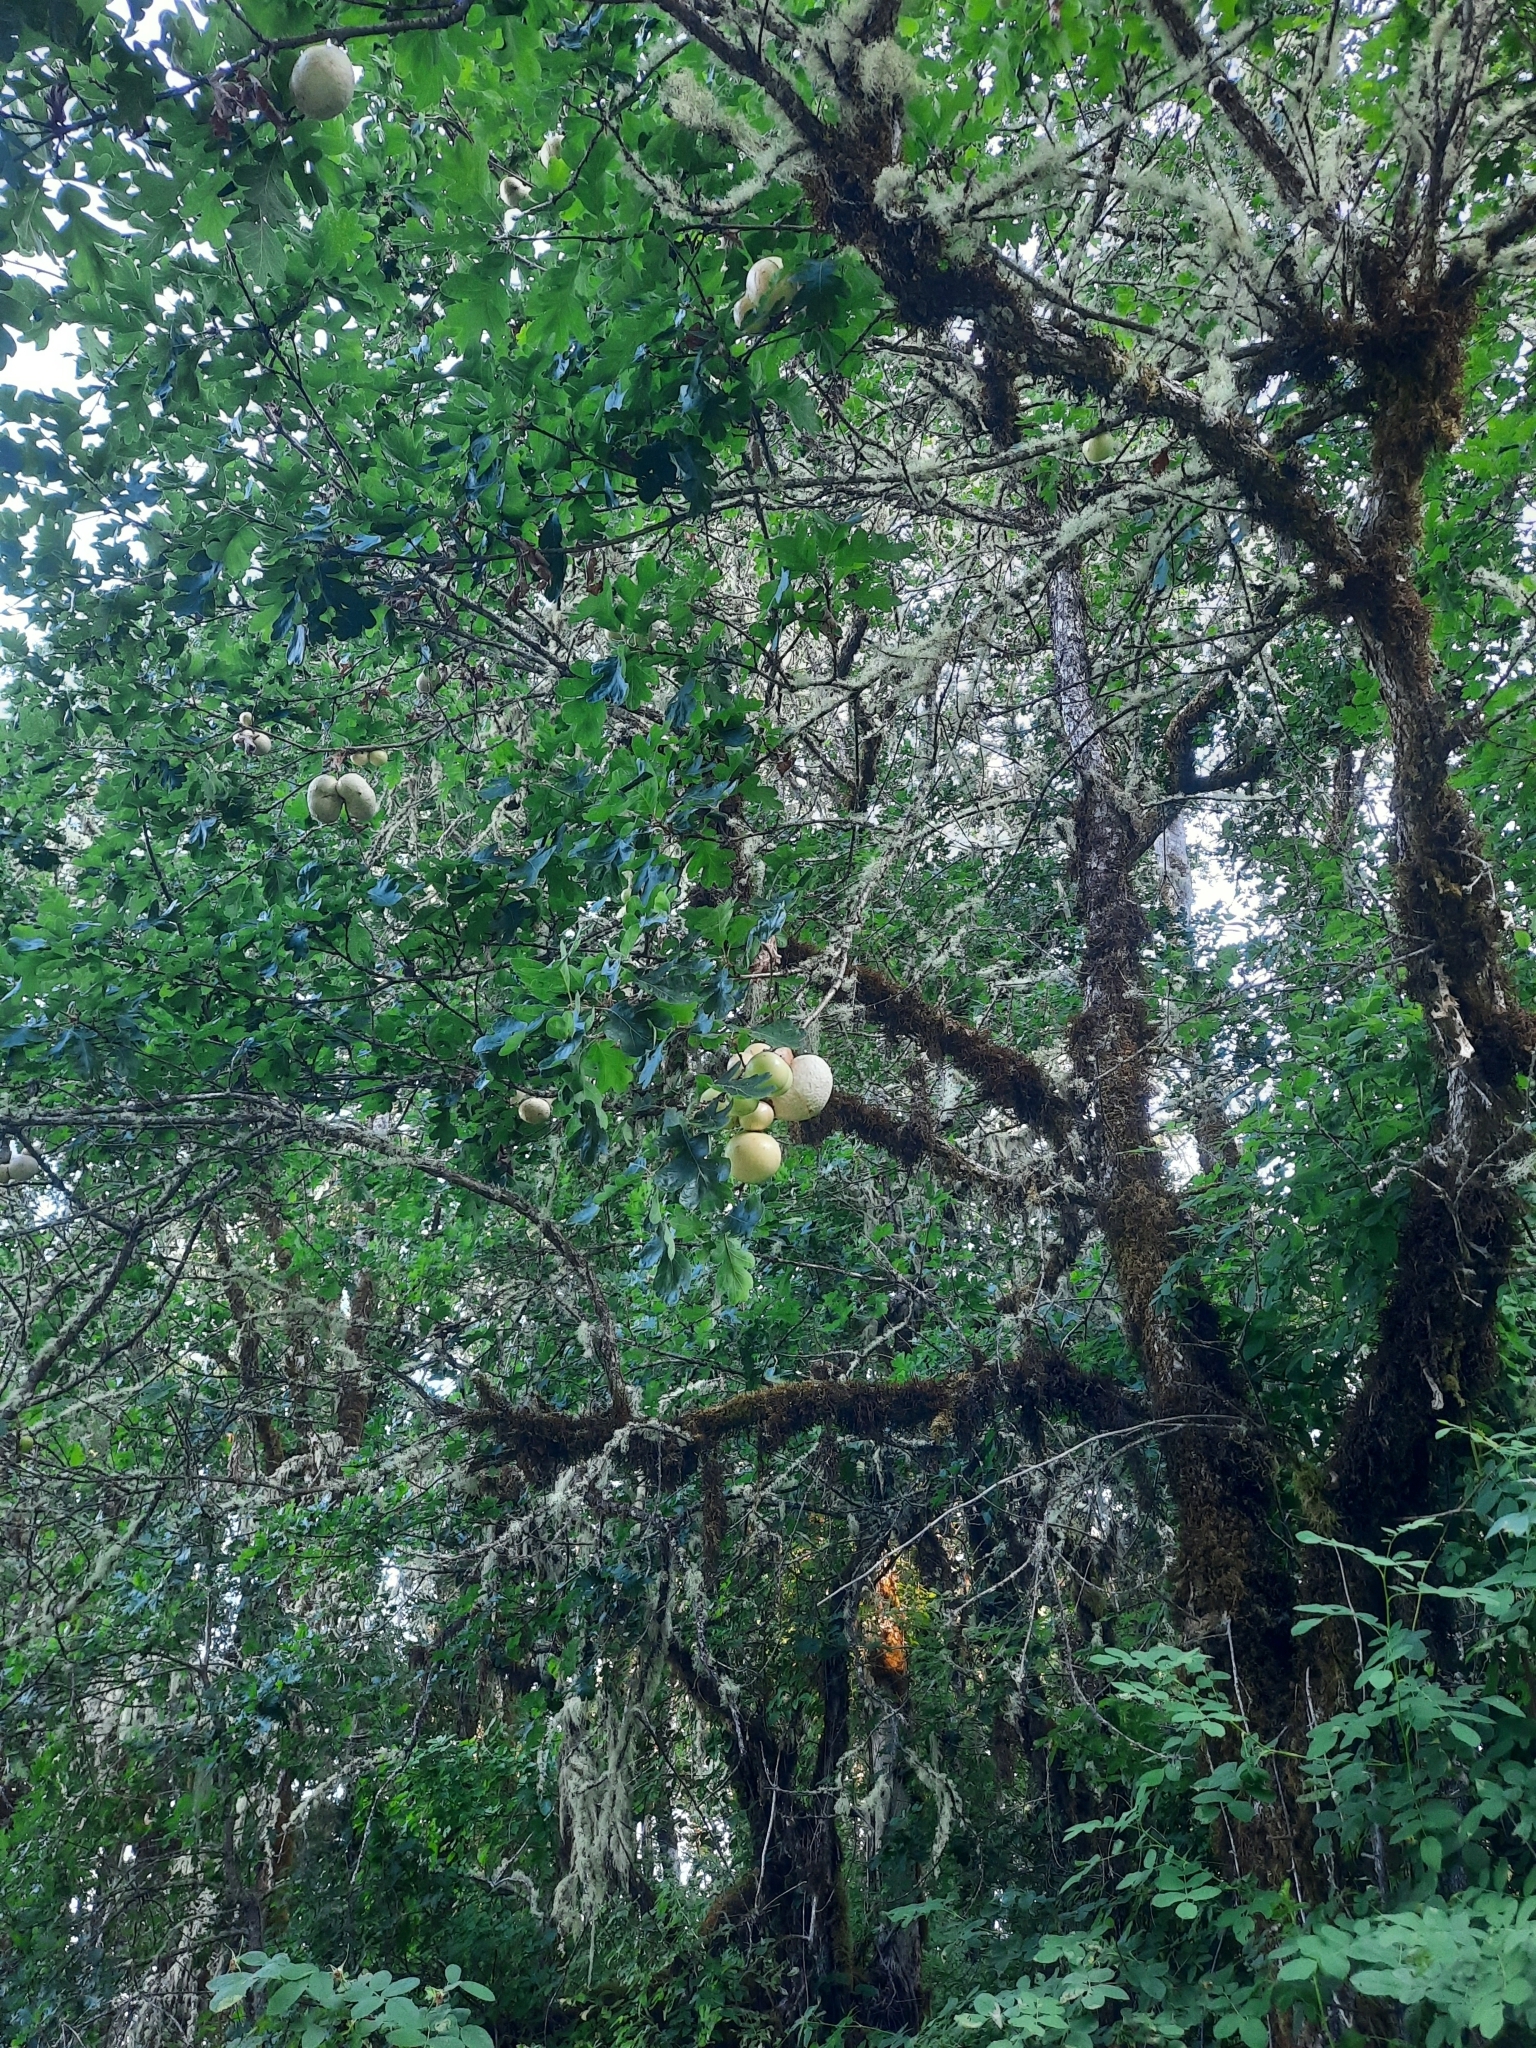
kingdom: Animalia
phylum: Arthropoda
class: Insecta
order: Hymenoptera
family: Cynipidae
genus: Andricus
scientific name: Andricus quercuscalifornicus
